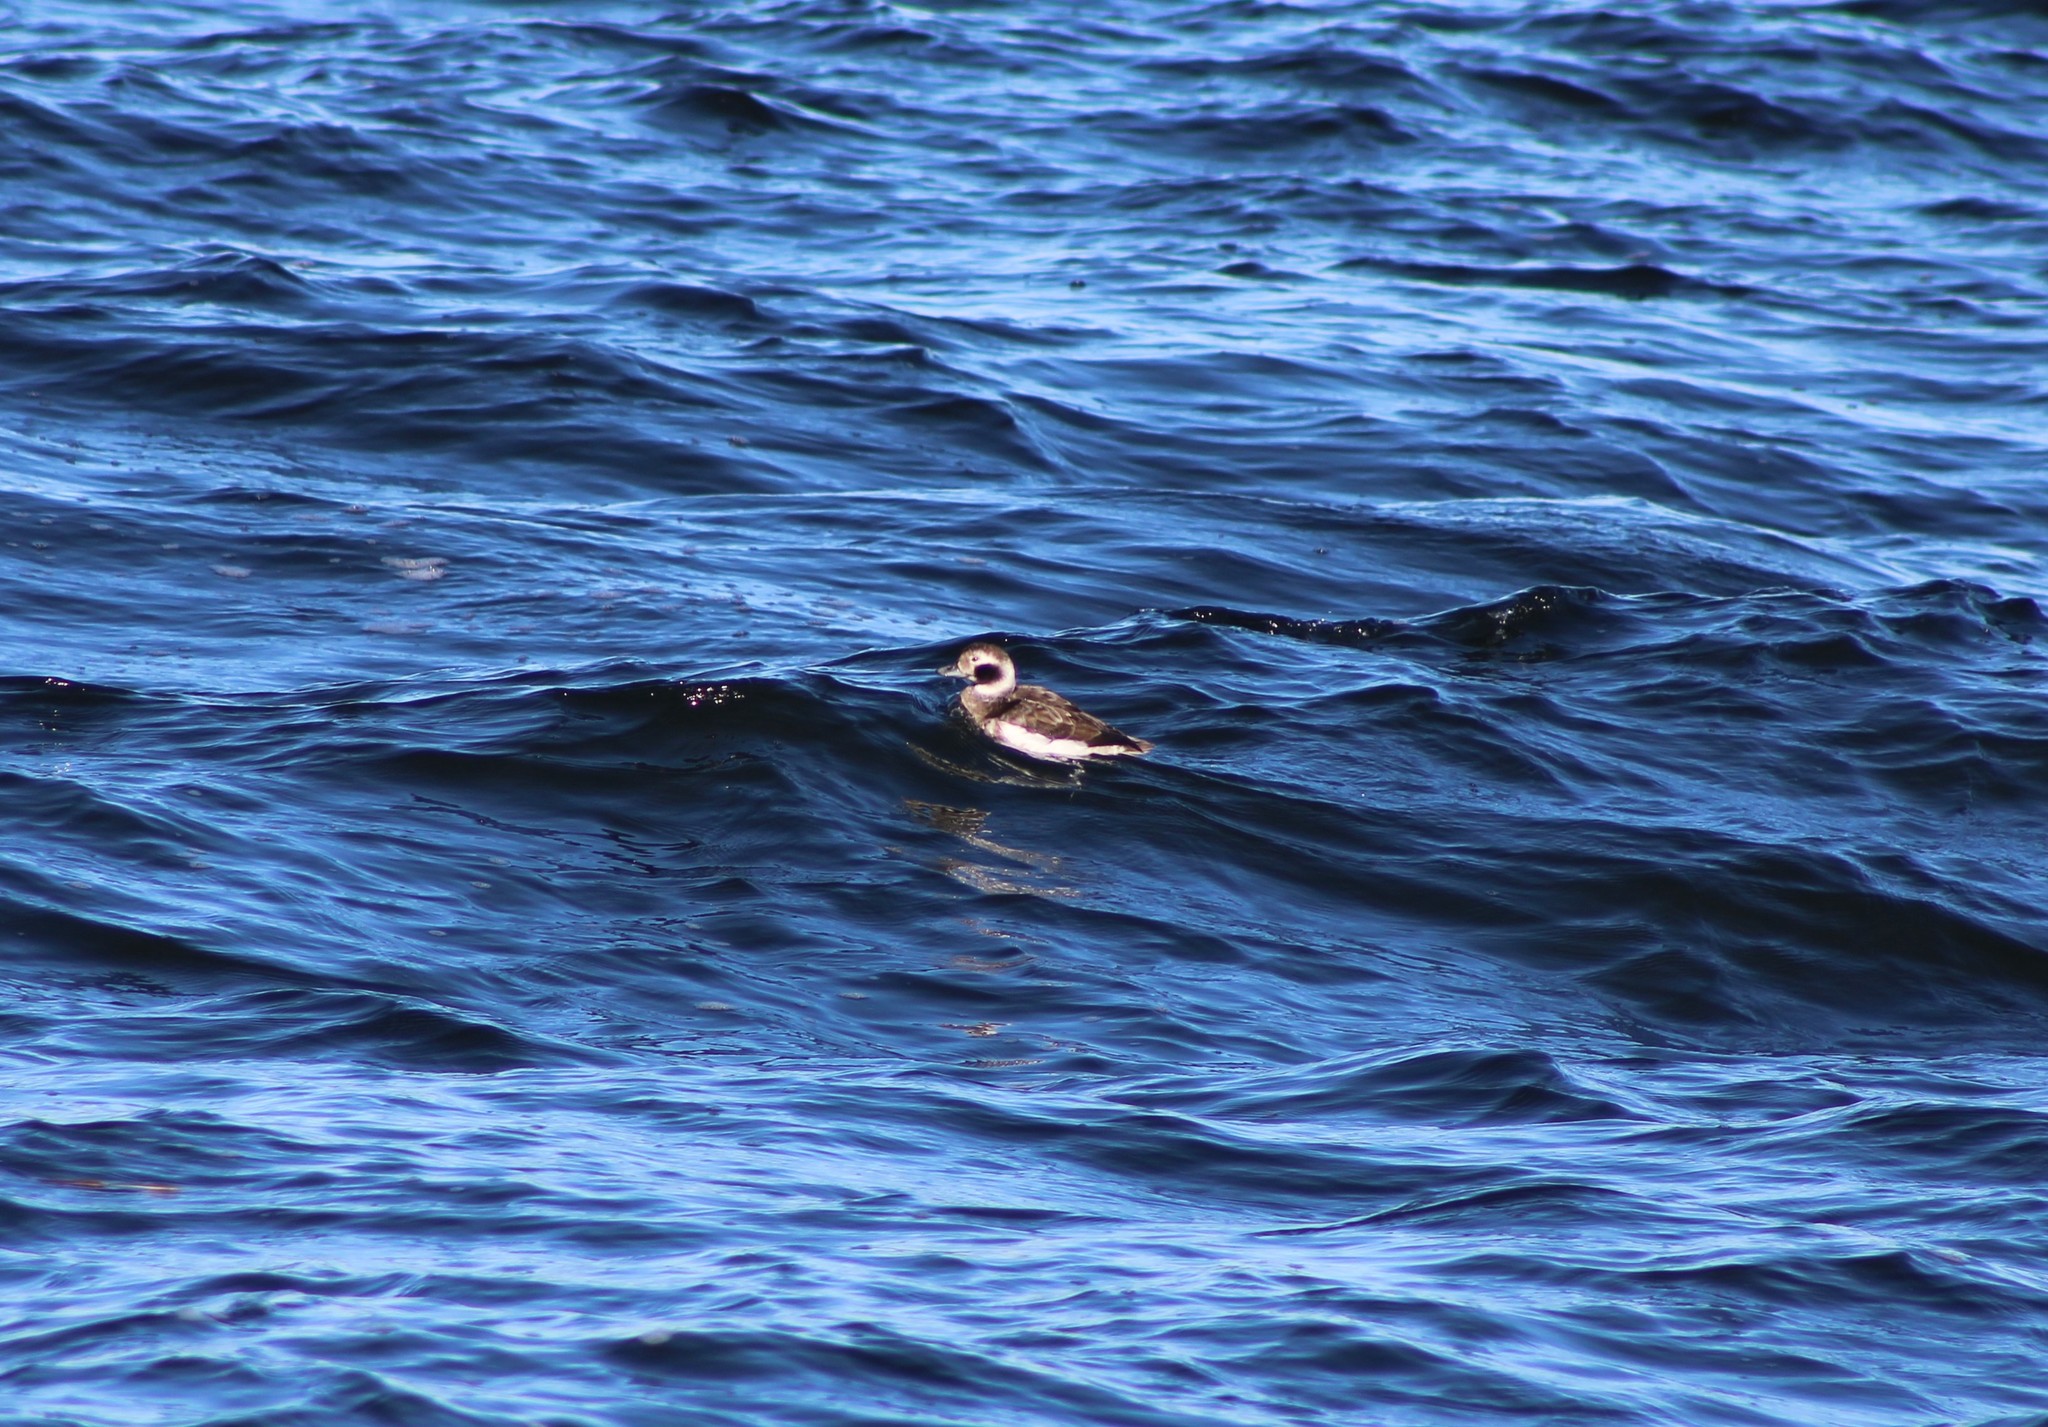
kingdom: Animalia
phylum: Chordata
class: Aves
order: Anseriformes
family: Anatidae
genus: Clangula
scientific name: Clangula hyemalis
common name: Long-tailed duck
